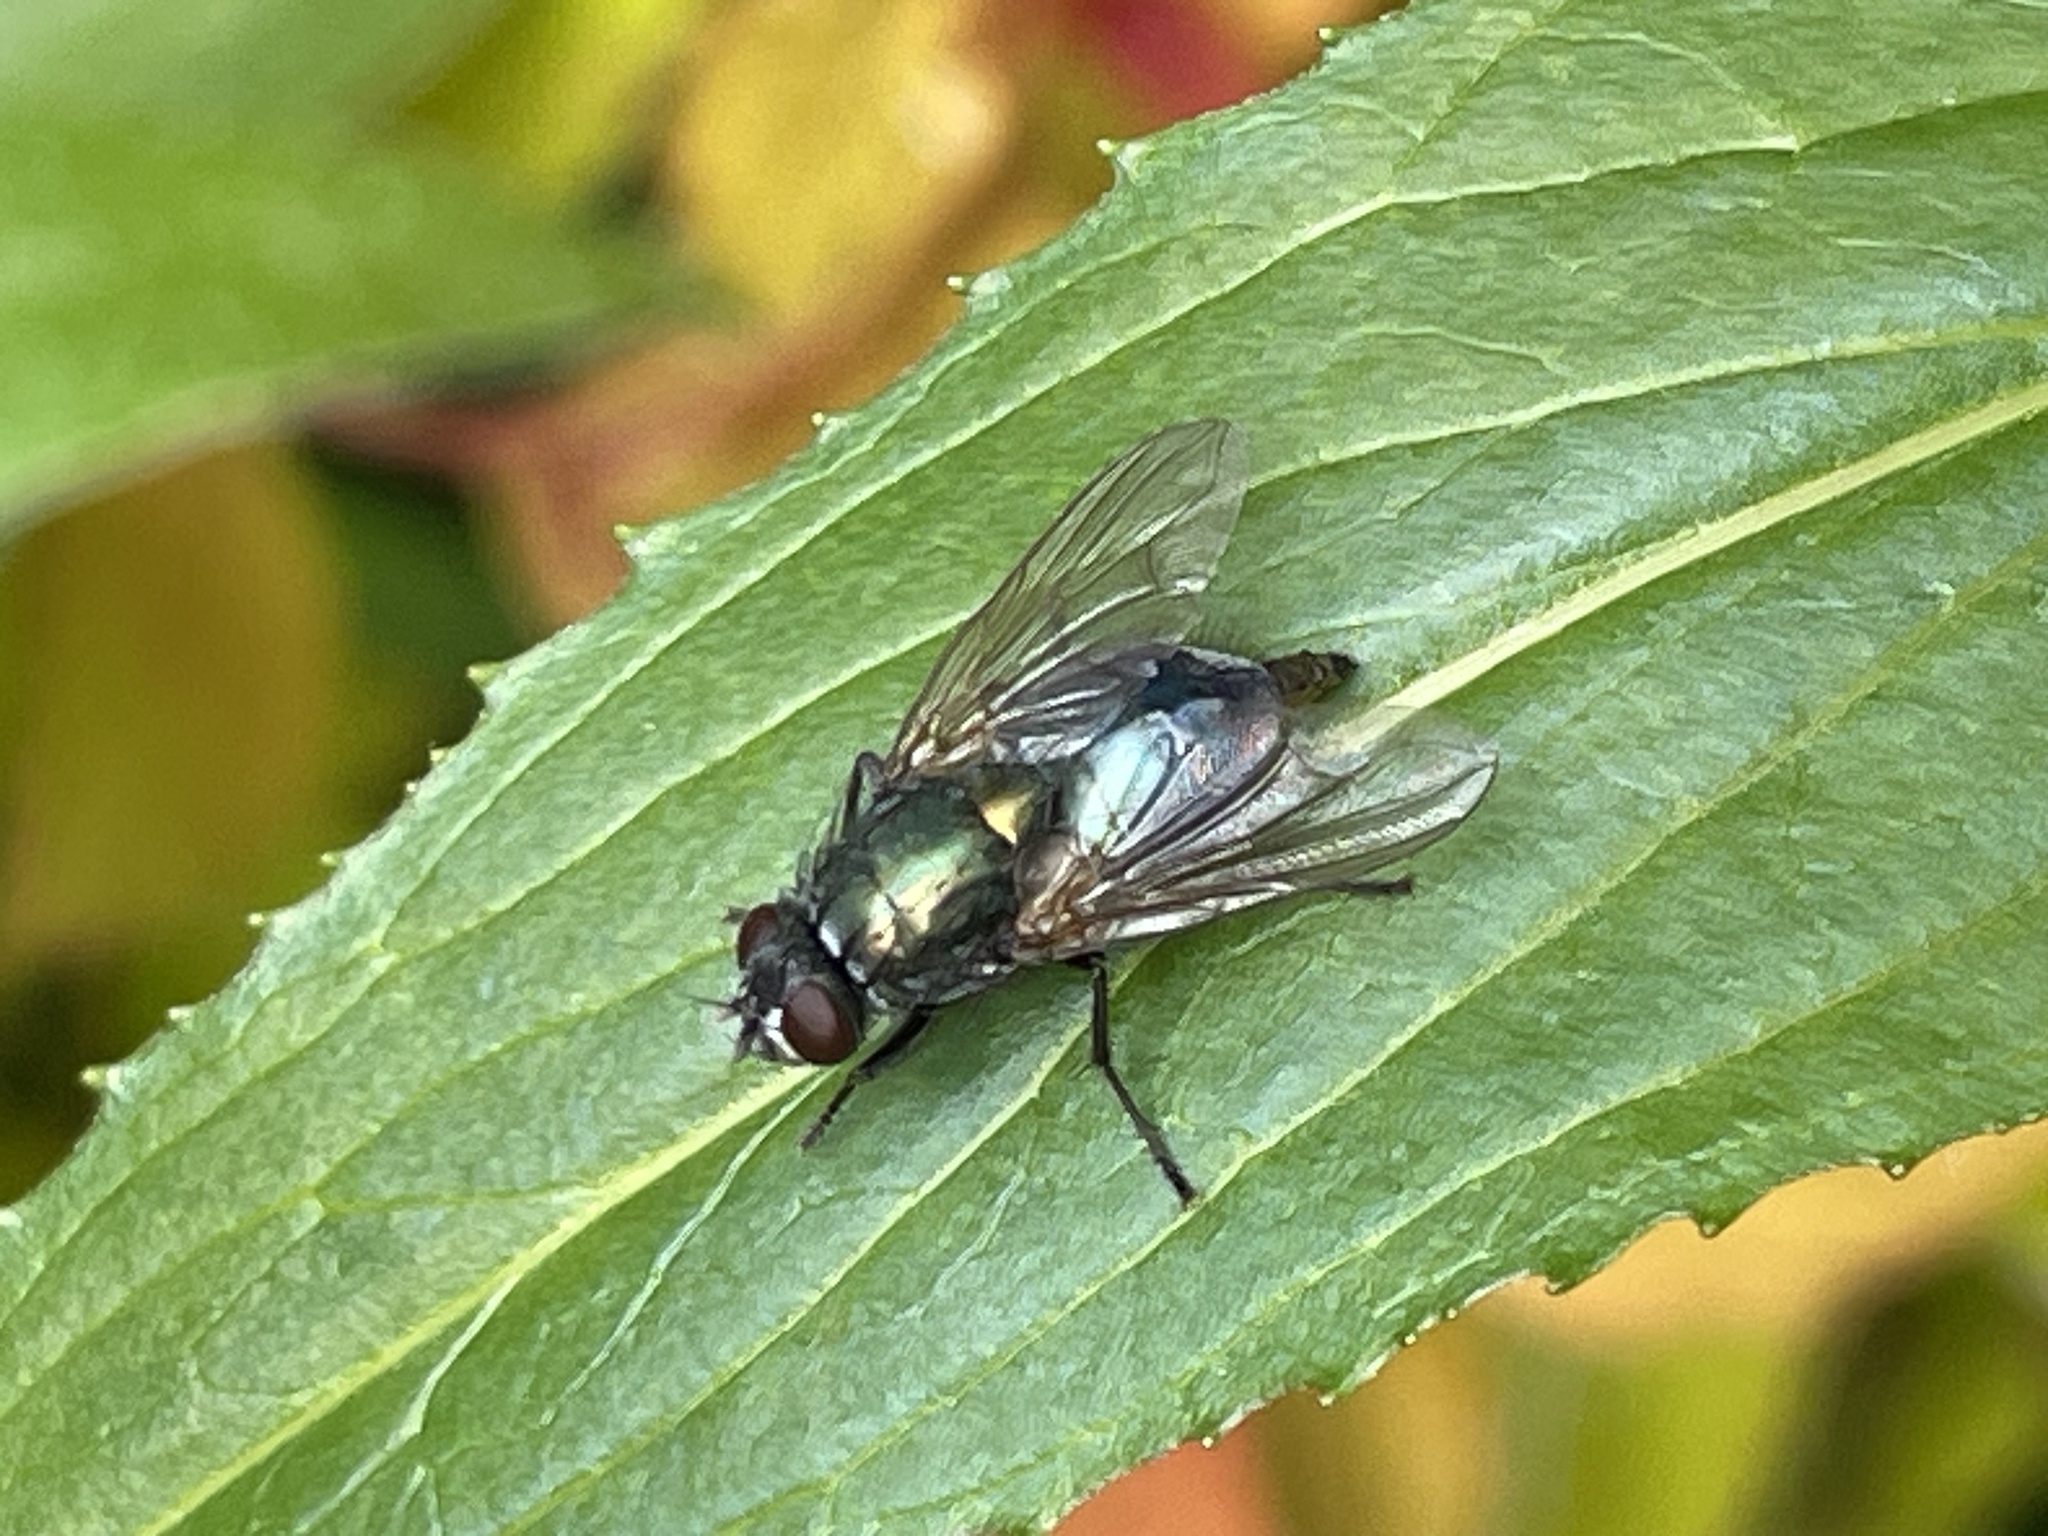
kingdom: Animalia
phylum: Arthropoda
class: Insecta
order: Diptera
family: Muscidae
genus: Dasyphora
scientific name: Dasyphora cyanella
